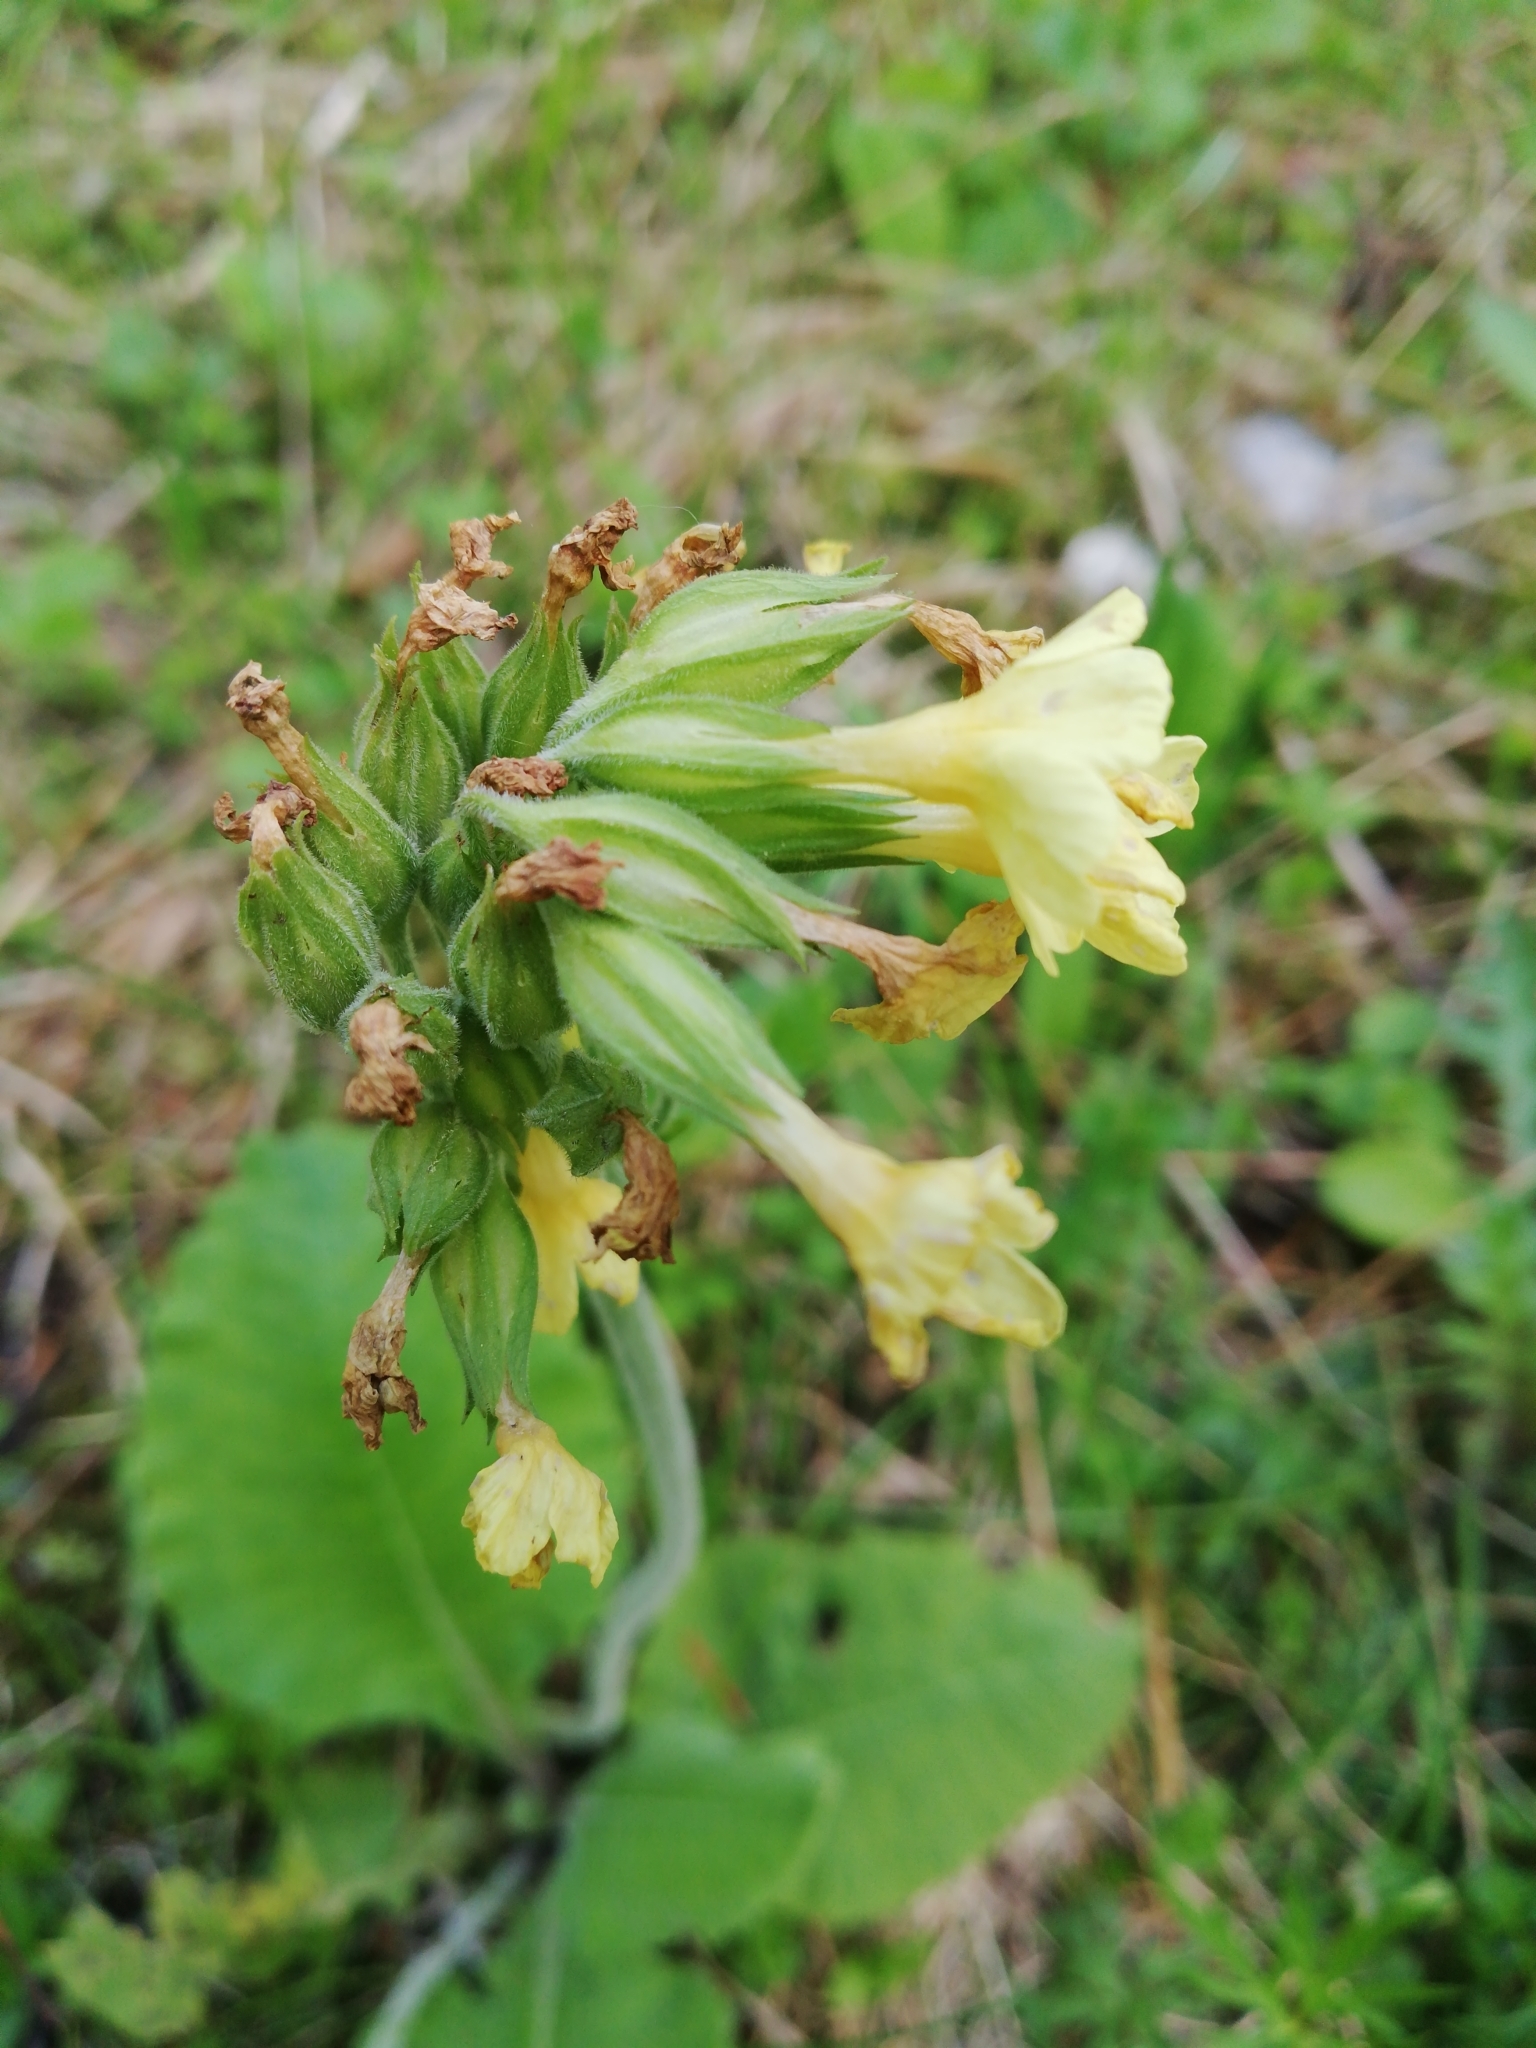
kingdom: Plantae
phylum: Tracheophyta
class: Magnoliopsida
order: Ericales
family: Primulaceae
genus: Primula
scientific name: Primula elatior
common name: Oxlip
